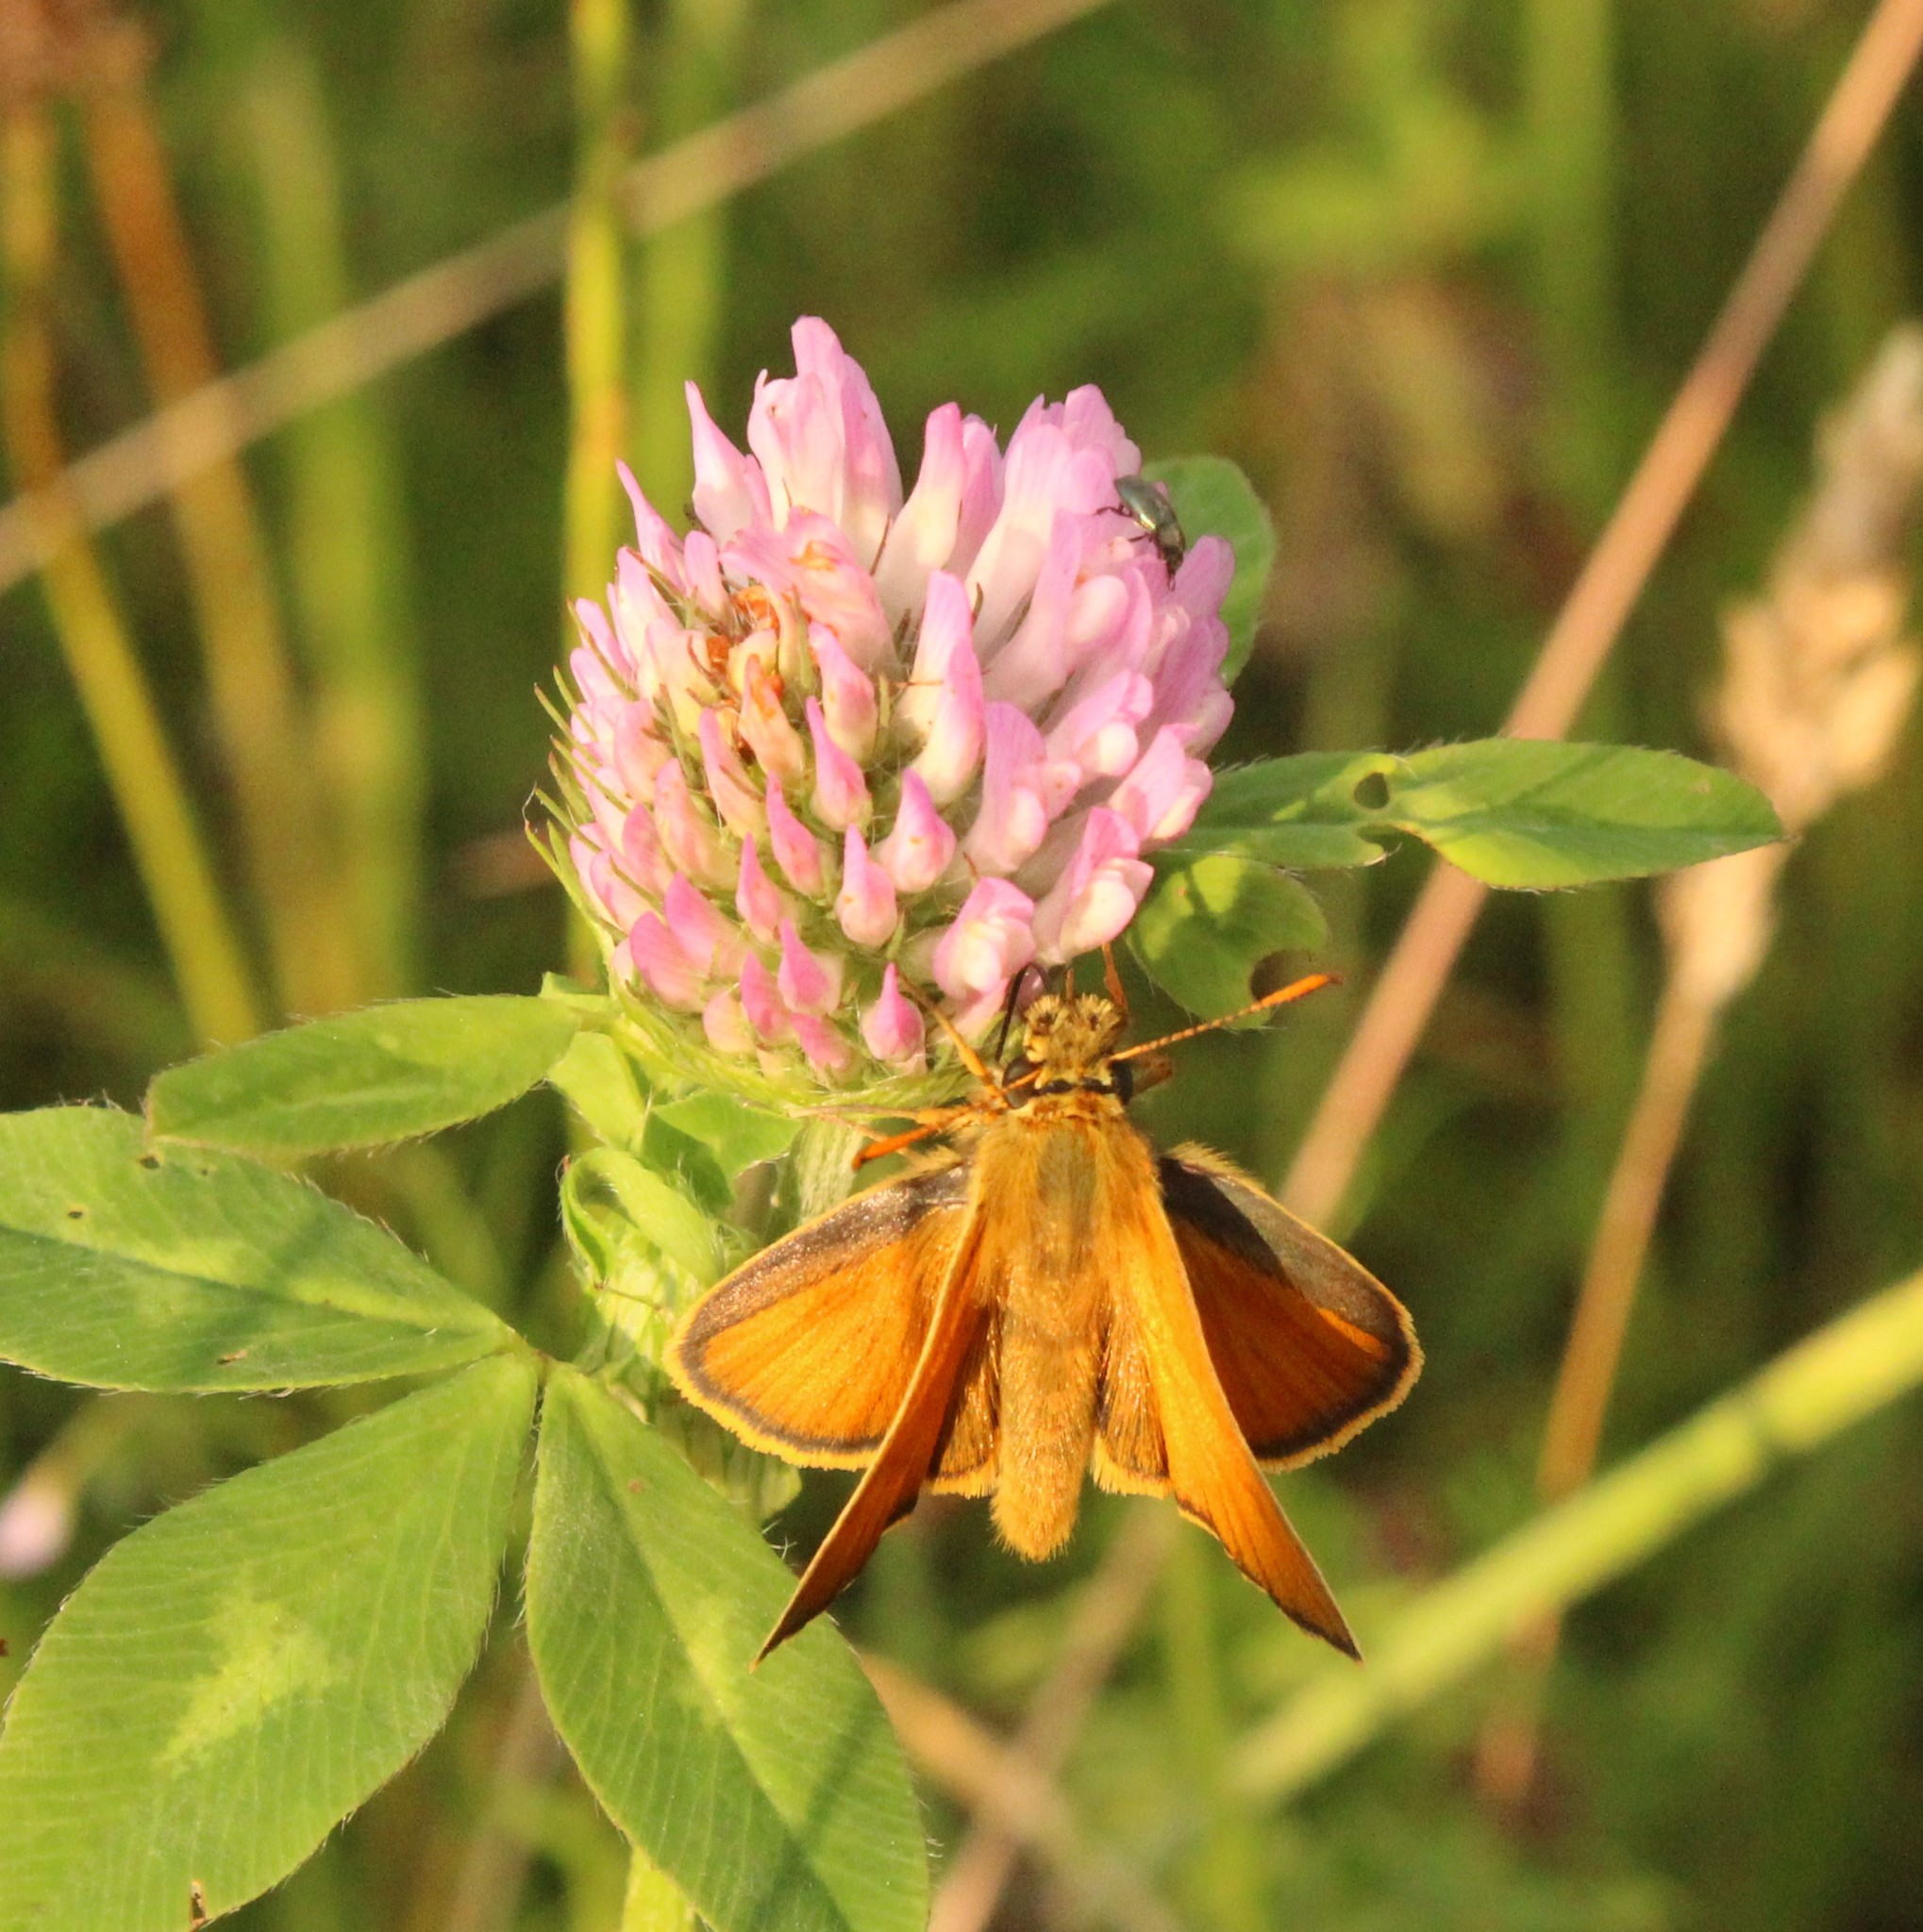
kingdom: Animalia
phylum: Arthropoda
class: Insecta
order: Lepidoptera
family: Hesperiidae
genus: Thymelicus
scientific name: Thymelicus sylvestris
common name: Small skipper
